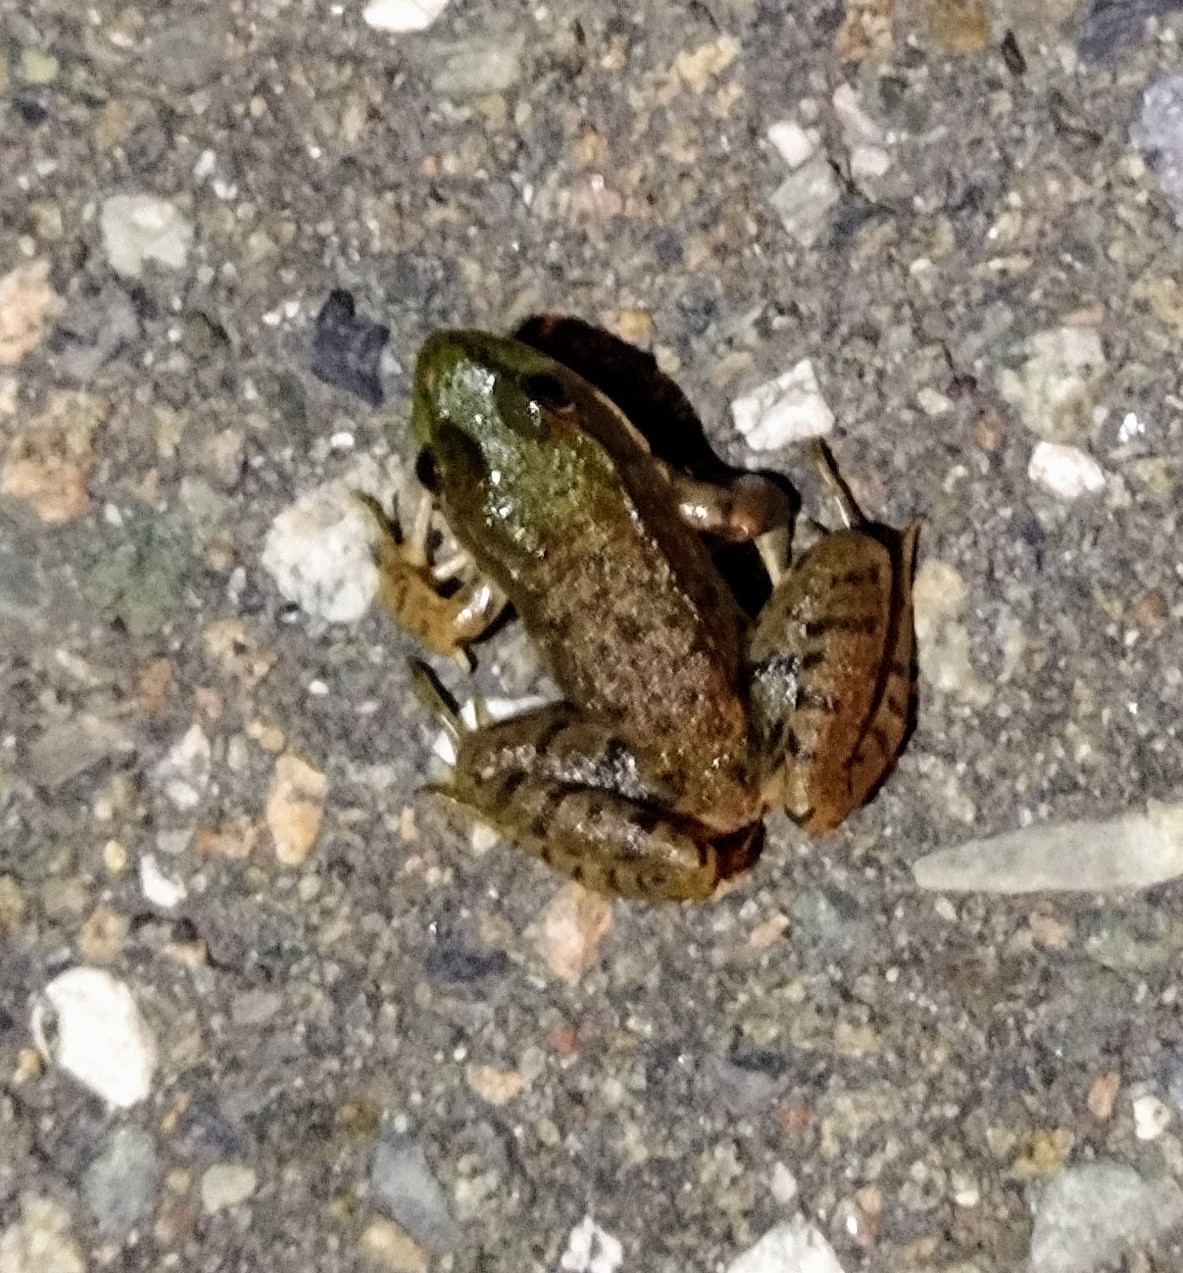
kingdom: Animalia
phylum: Chordata
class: Amphibia
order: Anura
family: Ranidae
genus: Lithobates
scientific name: Lithobates clamitans
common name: Green frog
